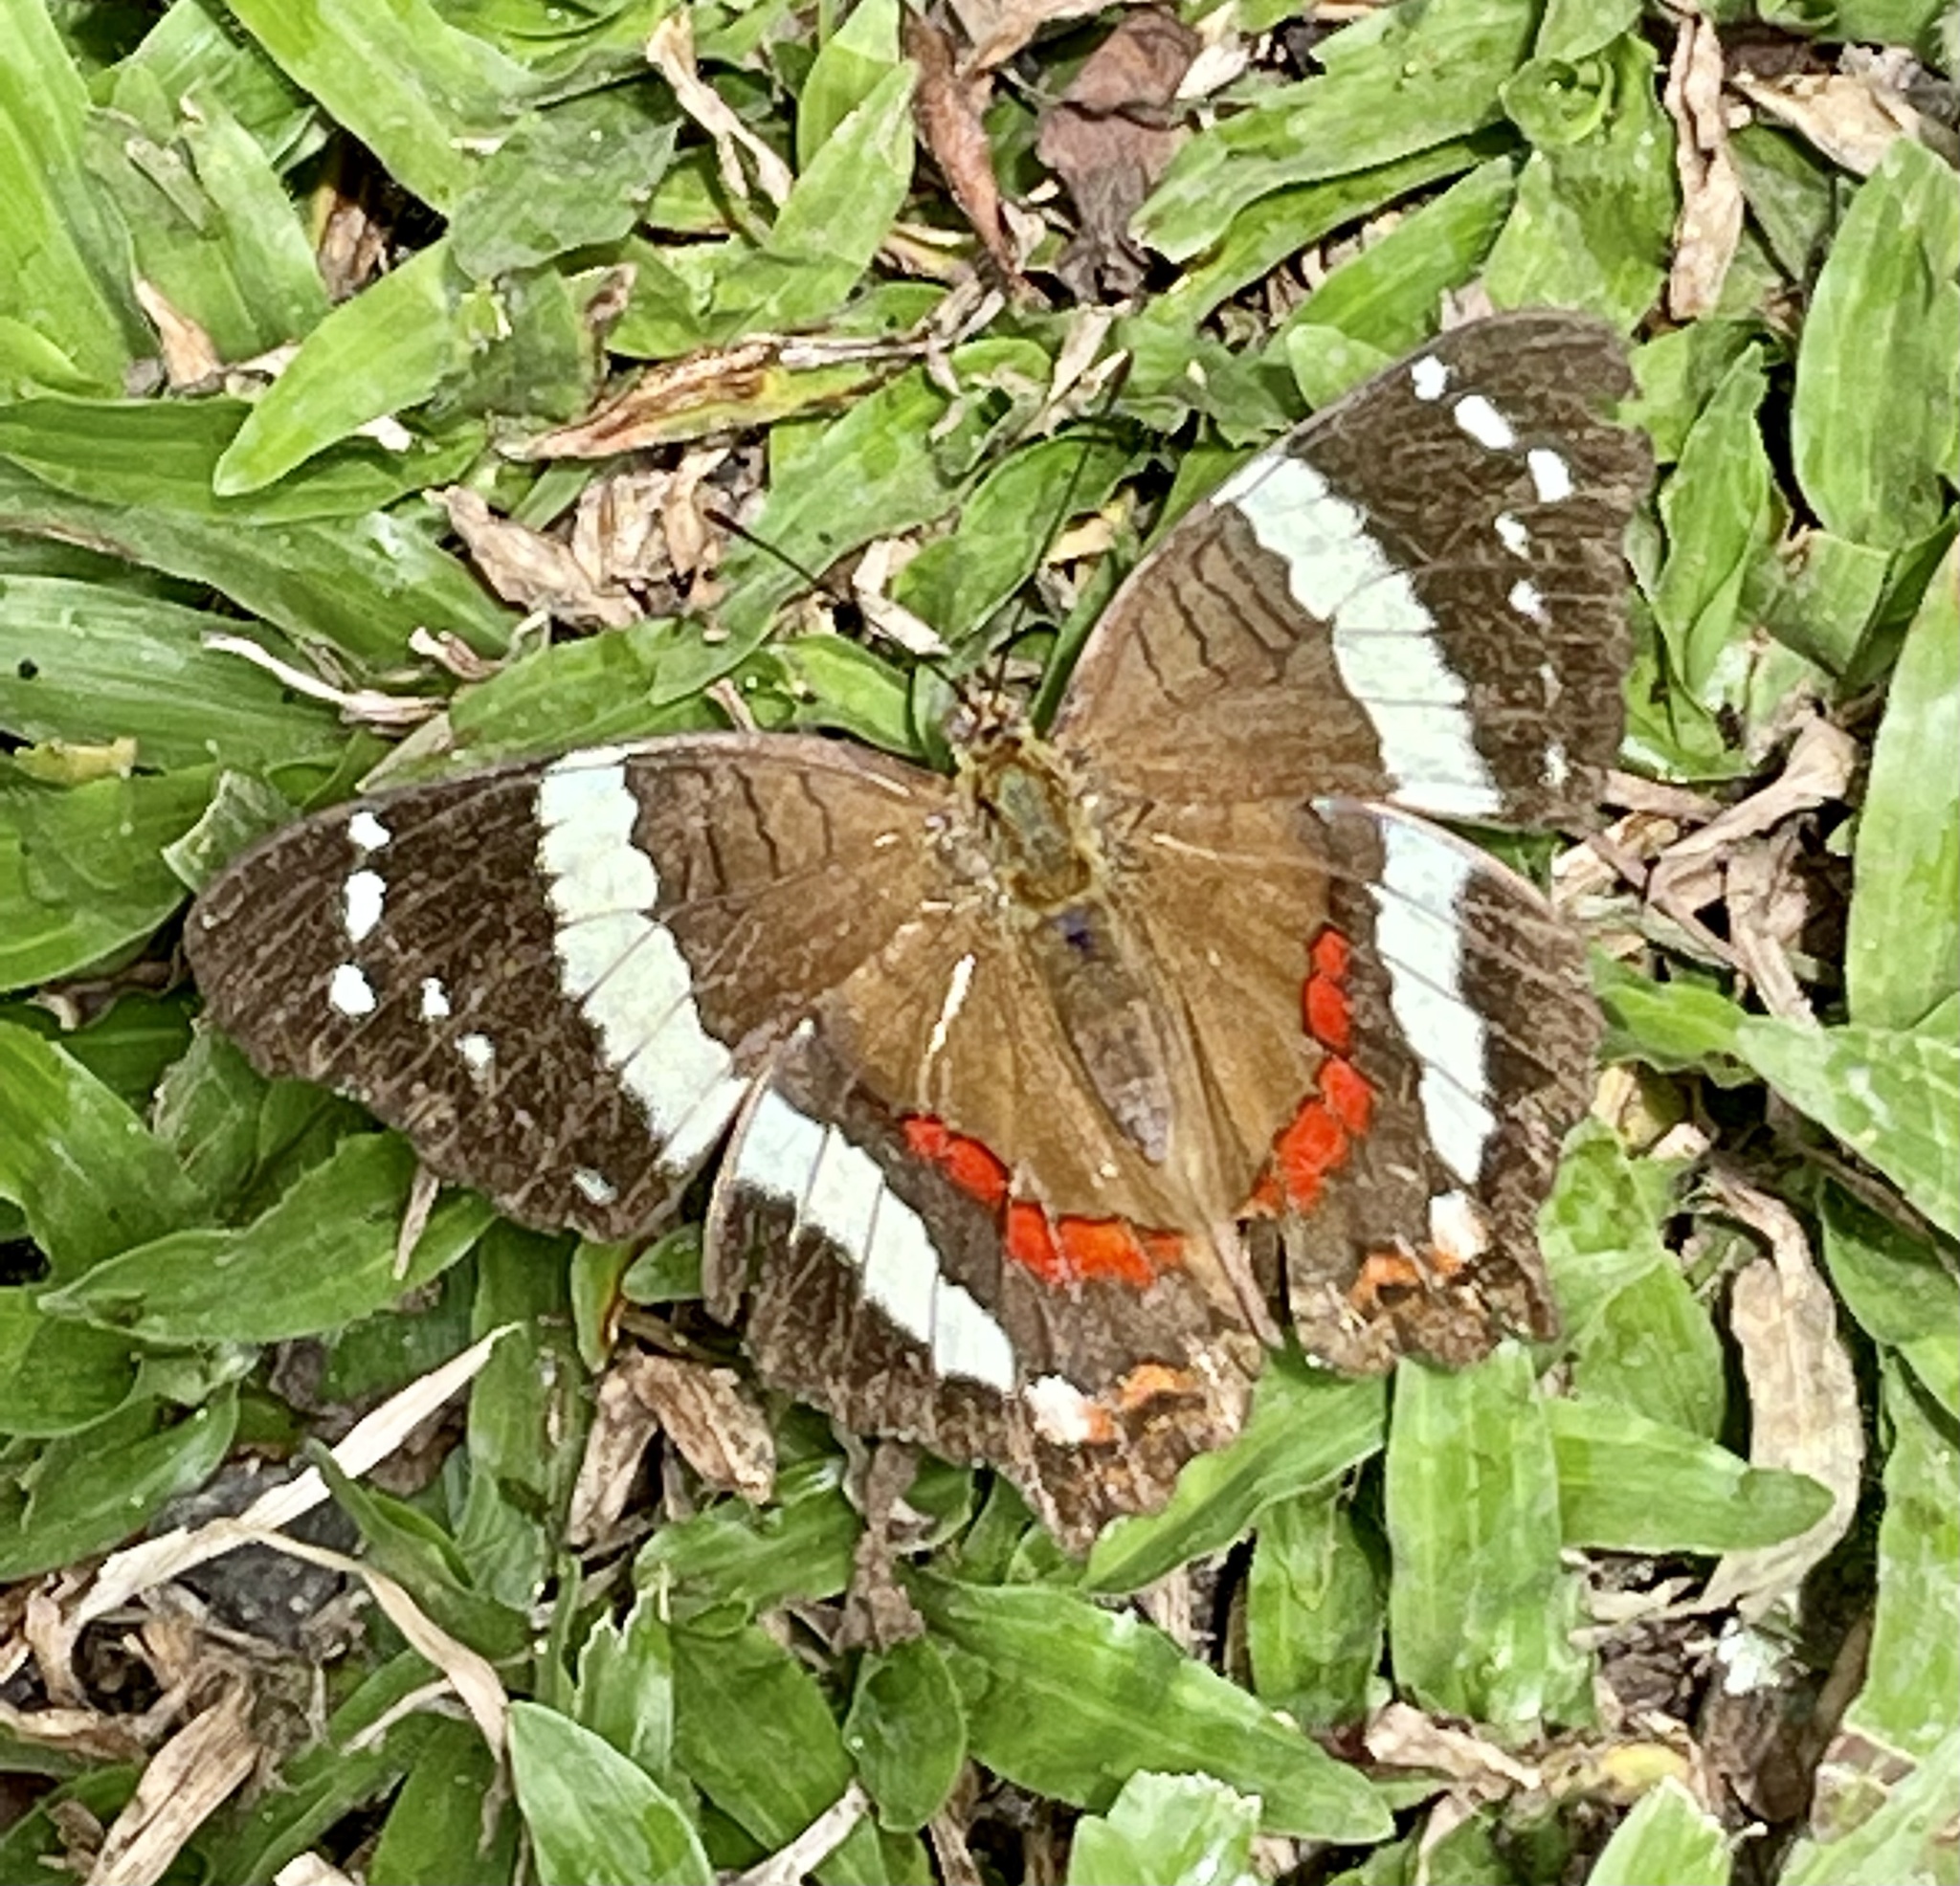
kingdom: Animalia
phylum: Arthropoda
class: Insecta
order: Lepidoptera
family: Nymphalidae
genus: Anartia
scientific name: Anartia fatima
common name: Banded peacock
